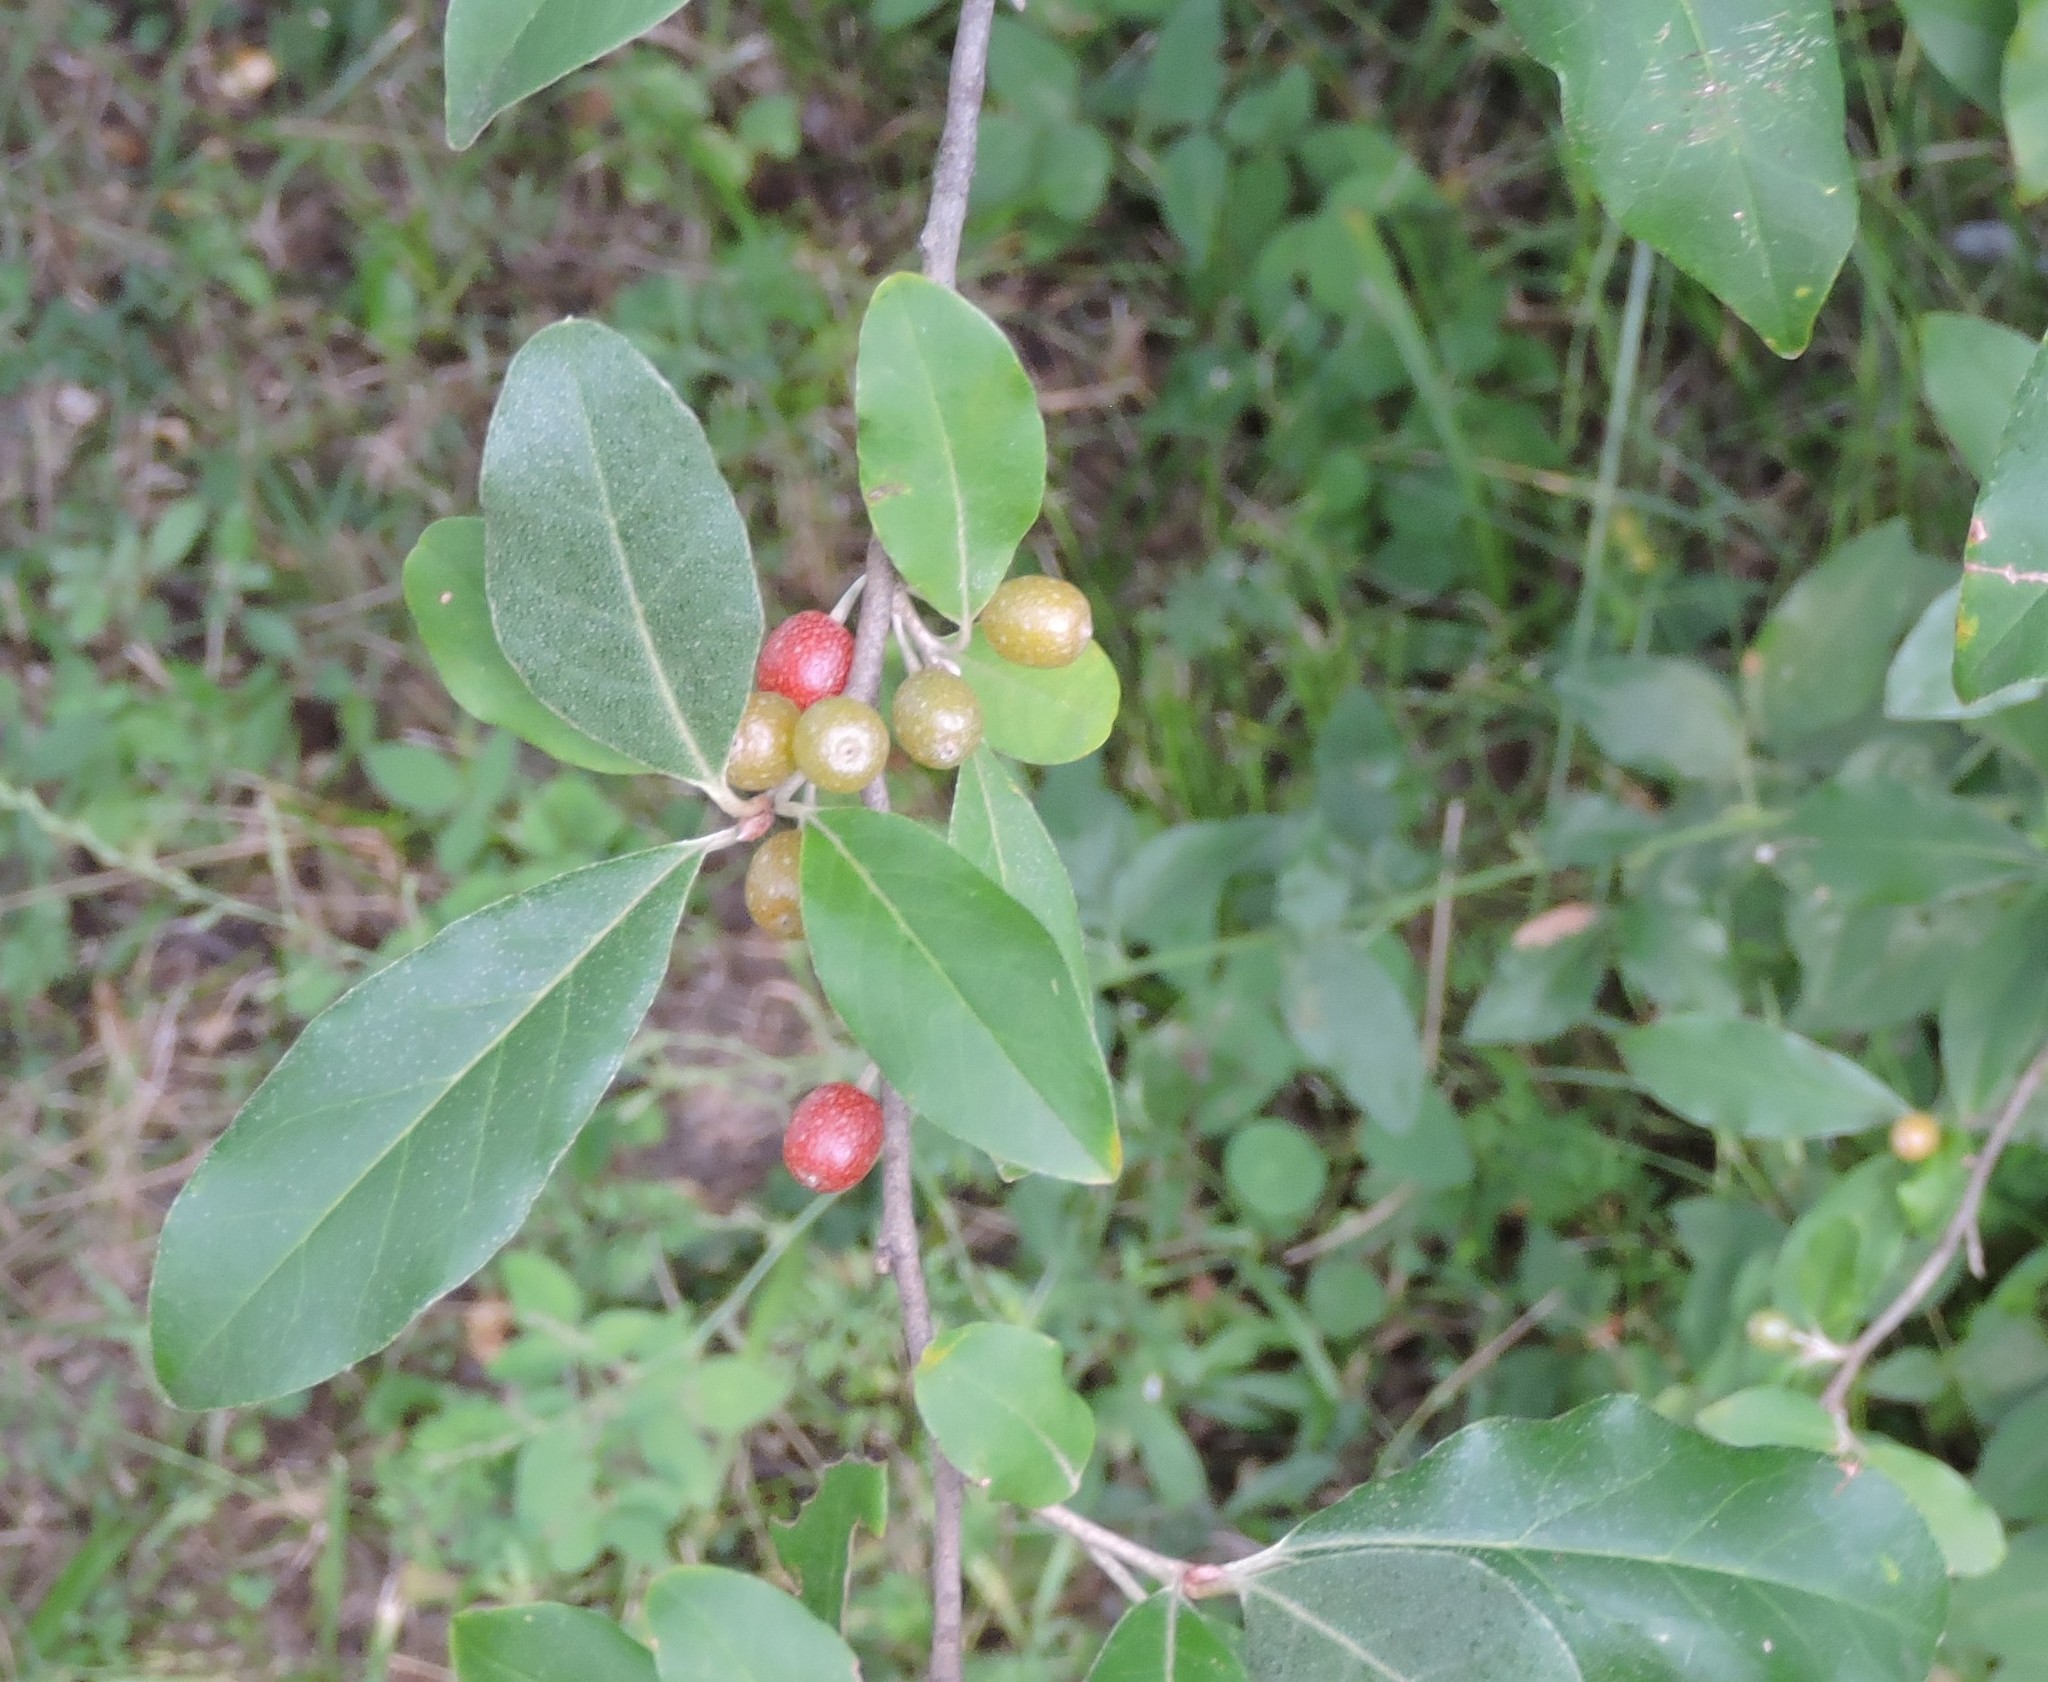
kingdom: Plantae
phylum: Tracheophyta
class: Magnoliopsida
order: Rosales
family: Elaeagnaceae
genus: Elaeagnus
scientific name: Elaeagnus umbellata
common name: Autumn olive
